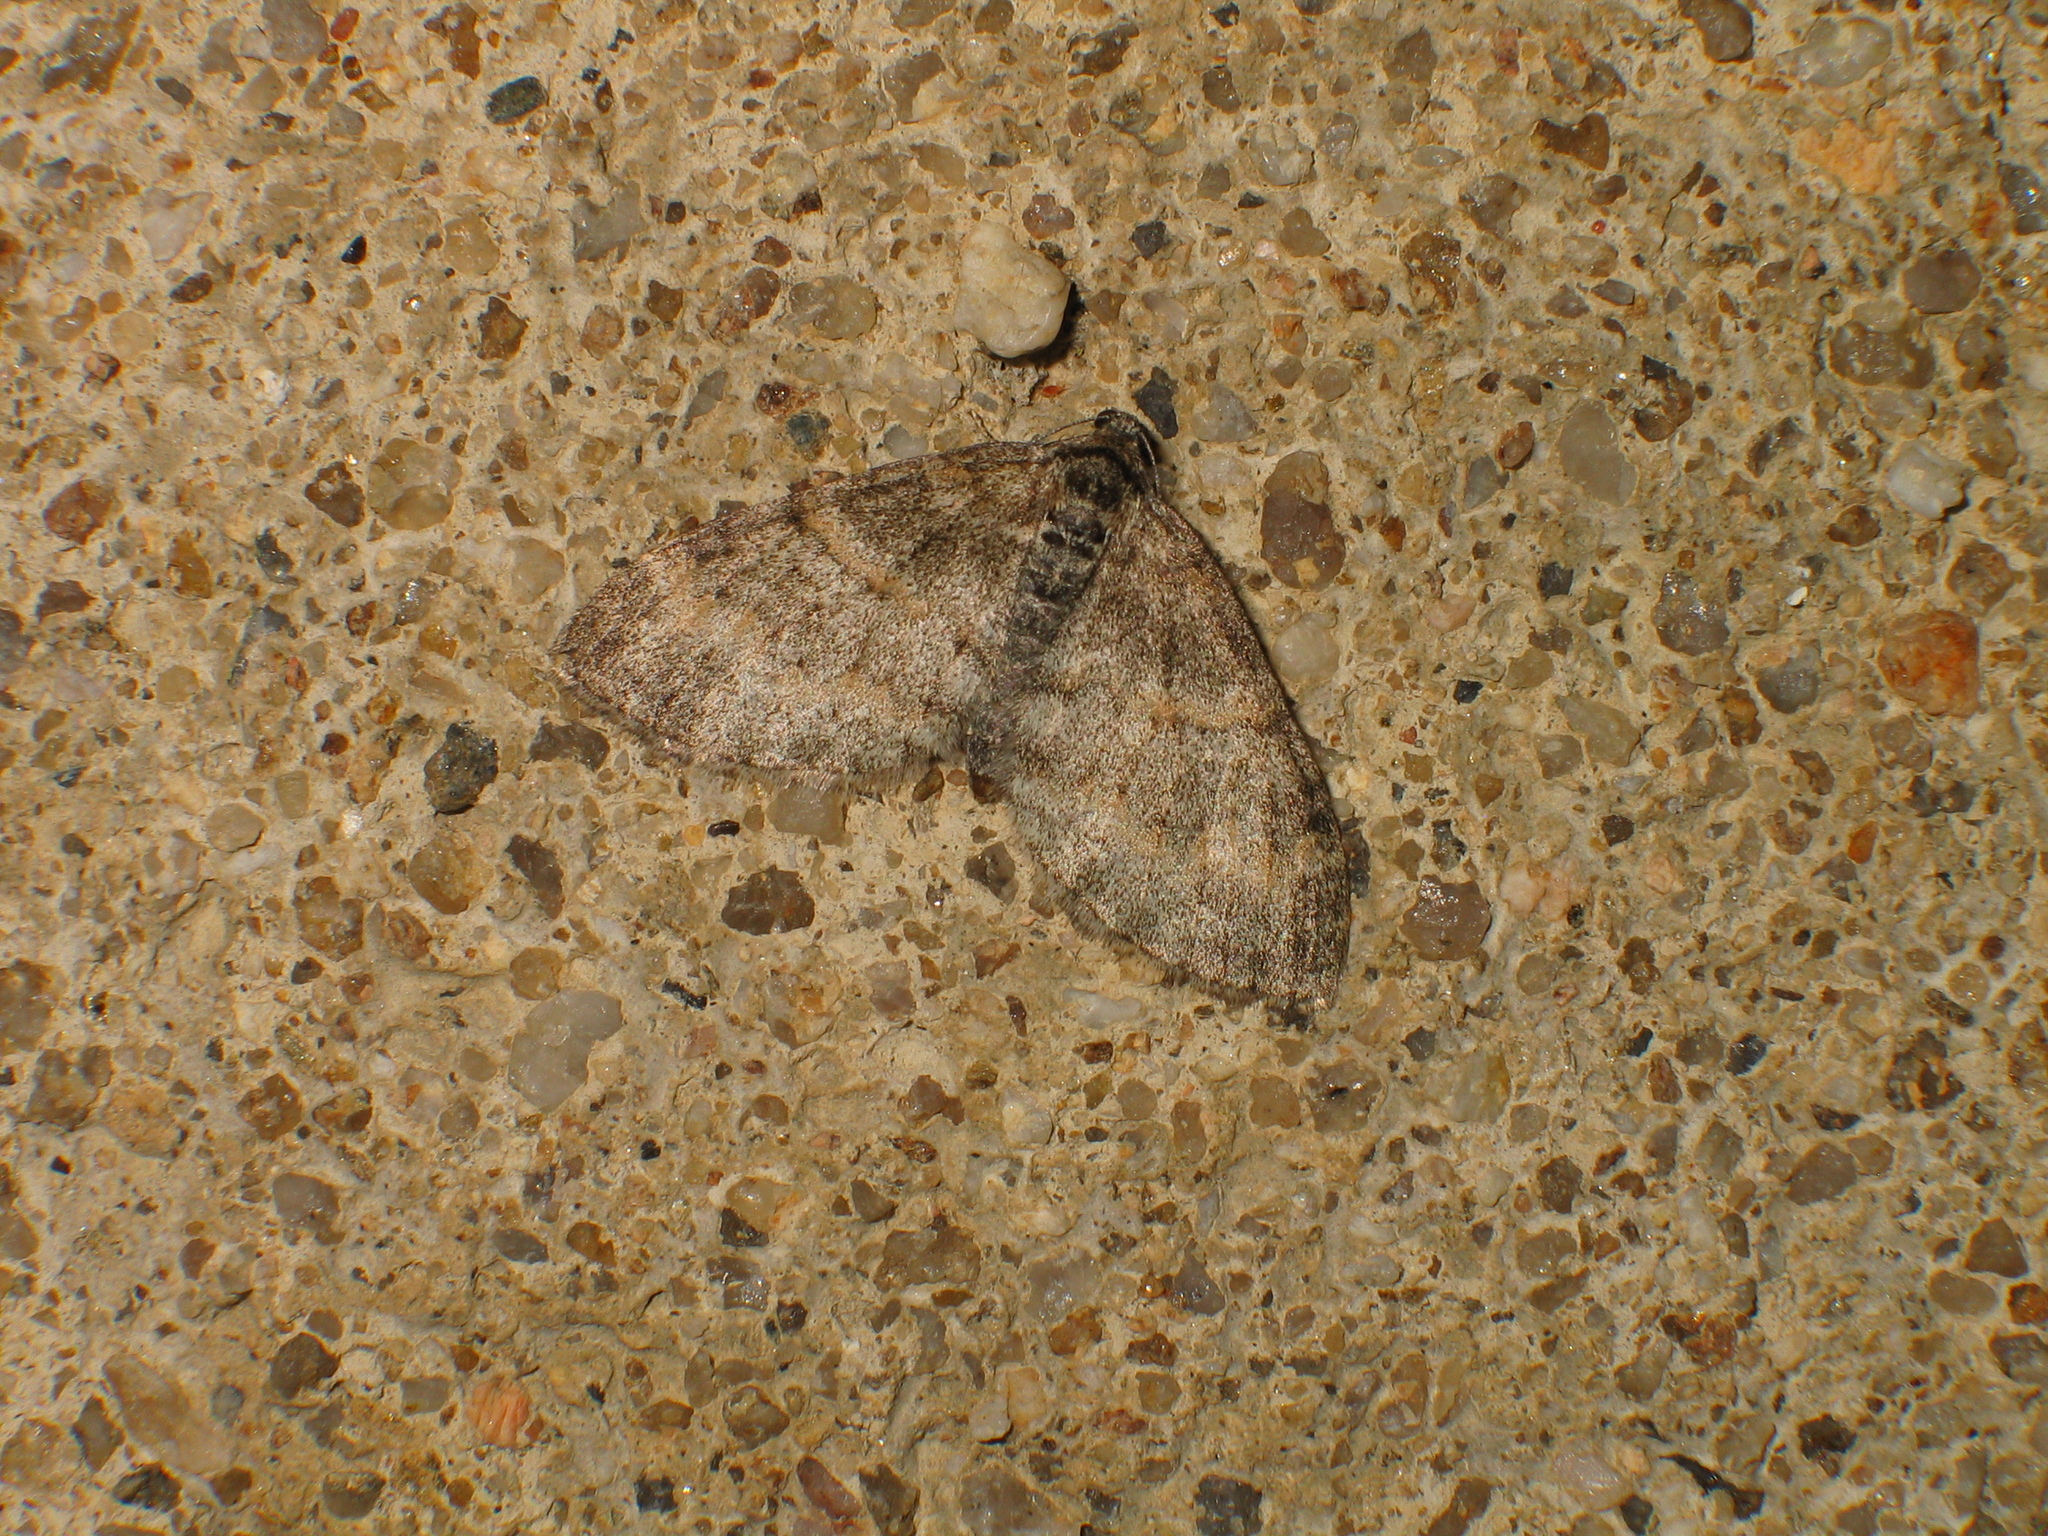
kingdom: Animalia
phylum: Arthropoda
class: Insecta
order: Lepidoptera
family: Geometridae
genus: Lobophora
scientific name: Lobophora halterata
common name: Seraphim
